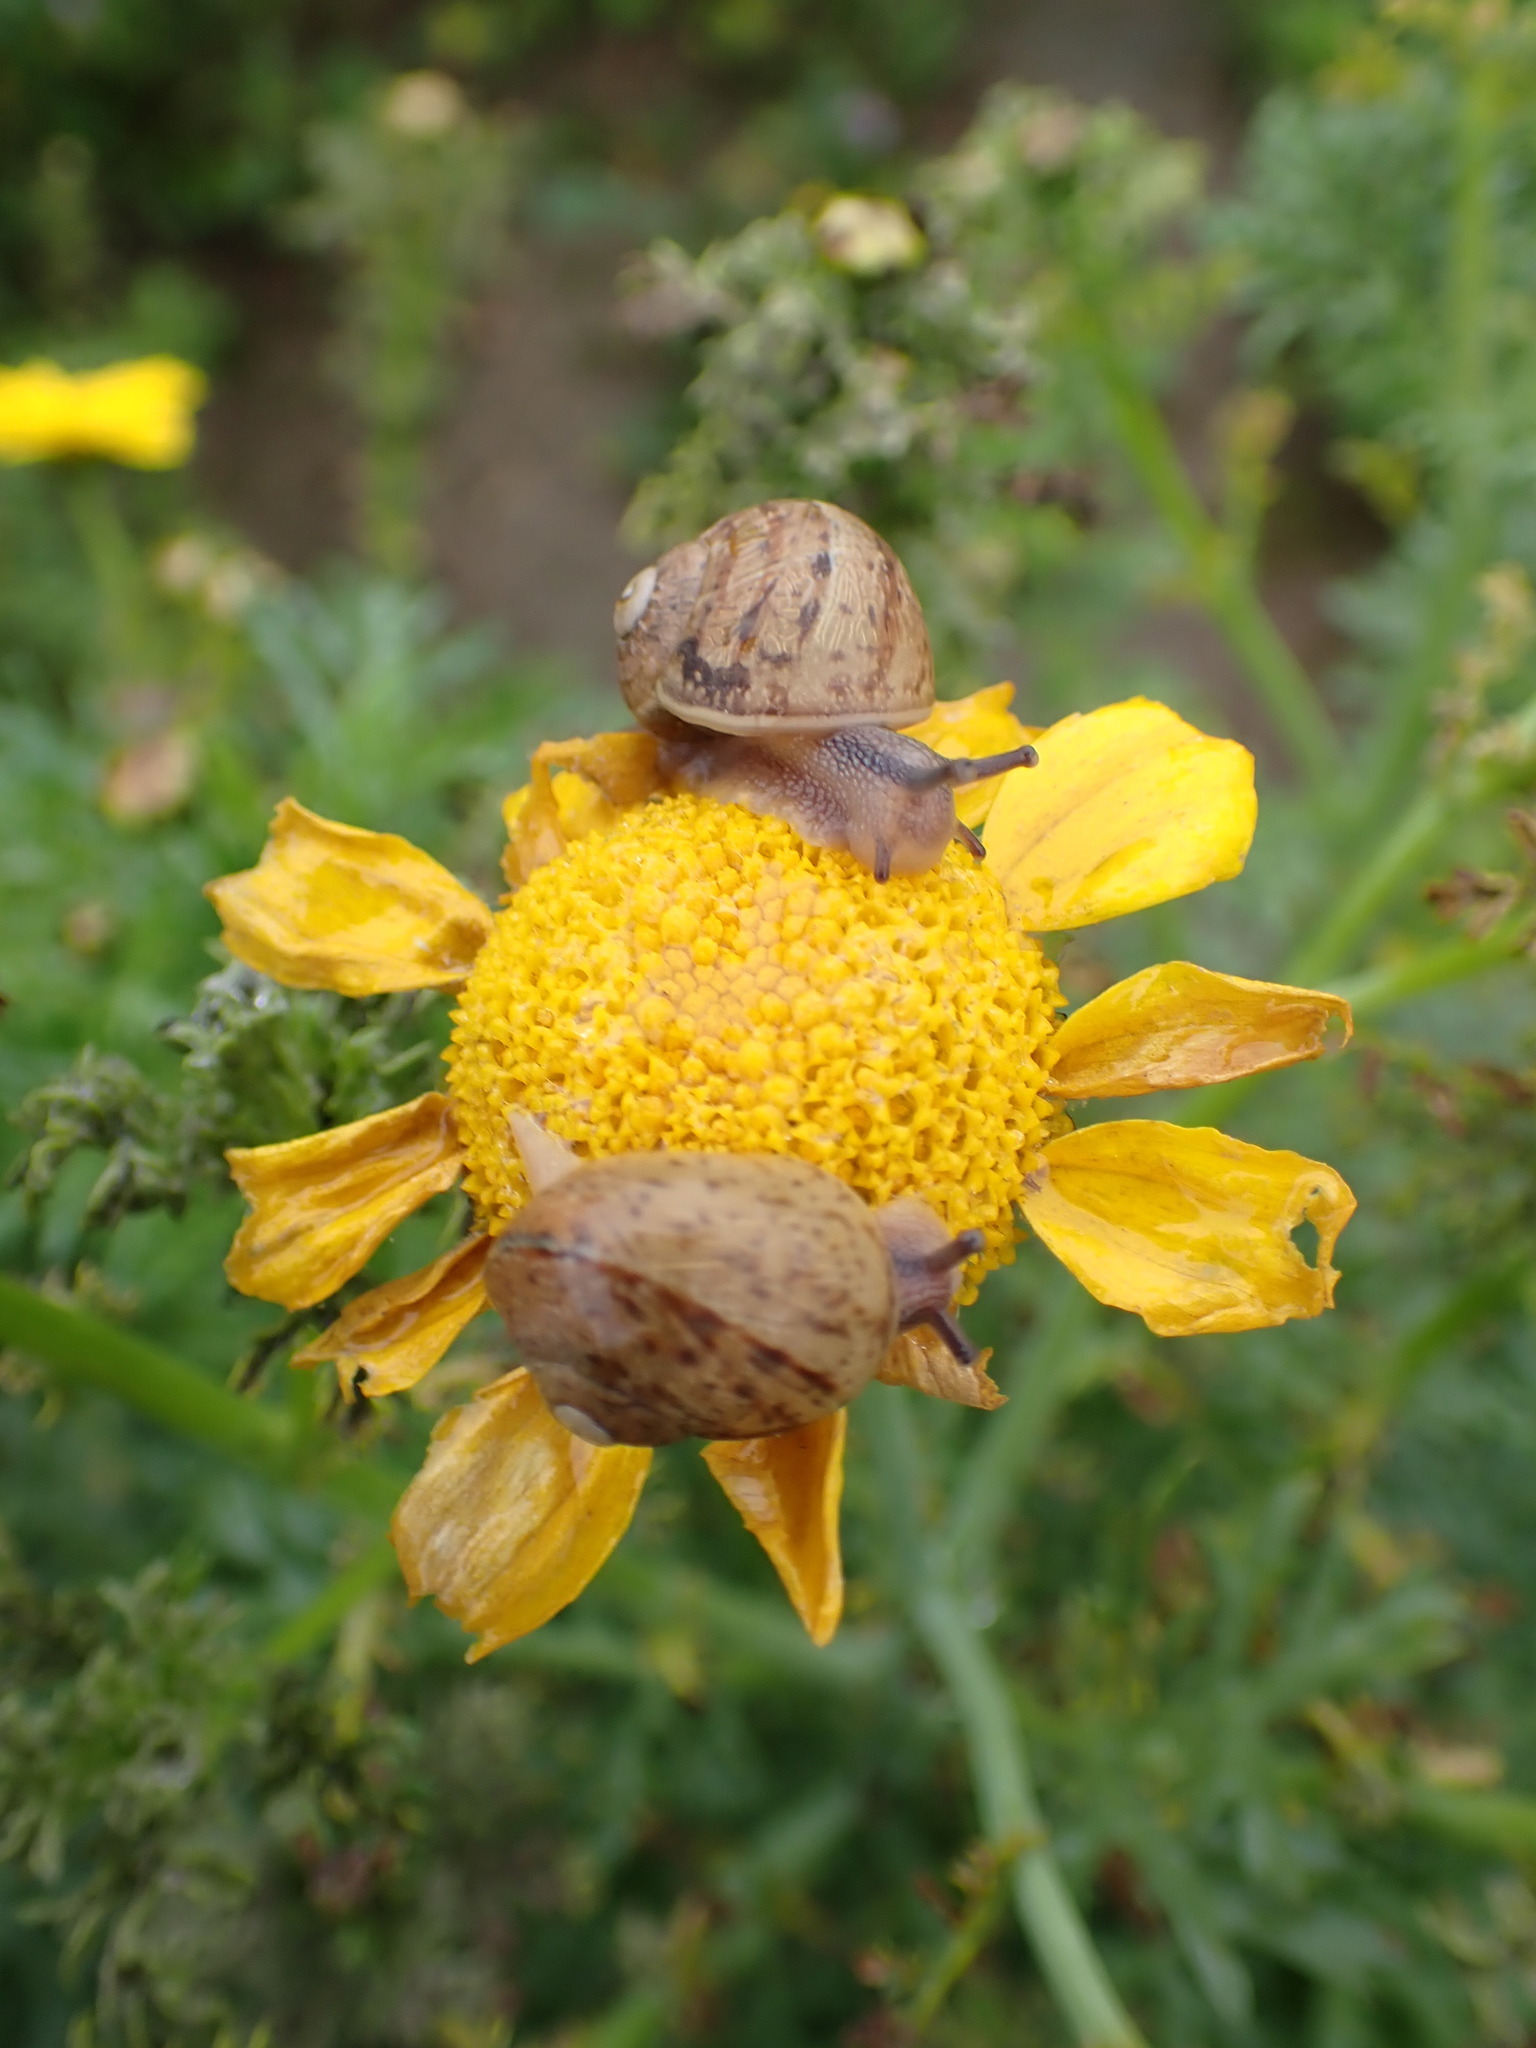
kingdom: Animalia
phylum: Mollusca
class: Gastropoda
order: Stylommatophora
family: Helicidae
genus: Cornu
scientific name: Cornu aspersum
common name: Brown garden snail
